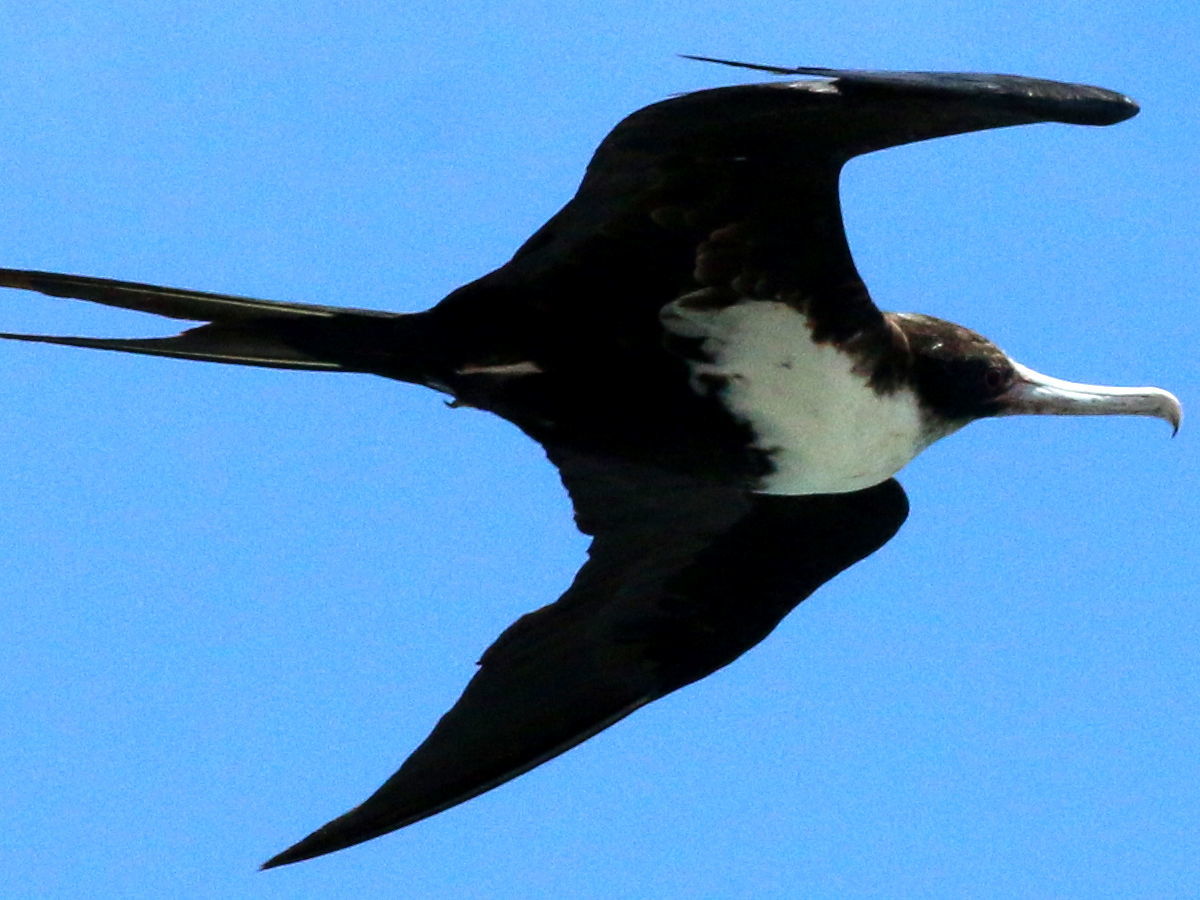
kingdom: Animalia
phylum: Chordata
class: Aves
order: Suliformes
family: Fregatidae
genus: Fregata
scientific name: Fregata minor
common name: Great frigatebird
